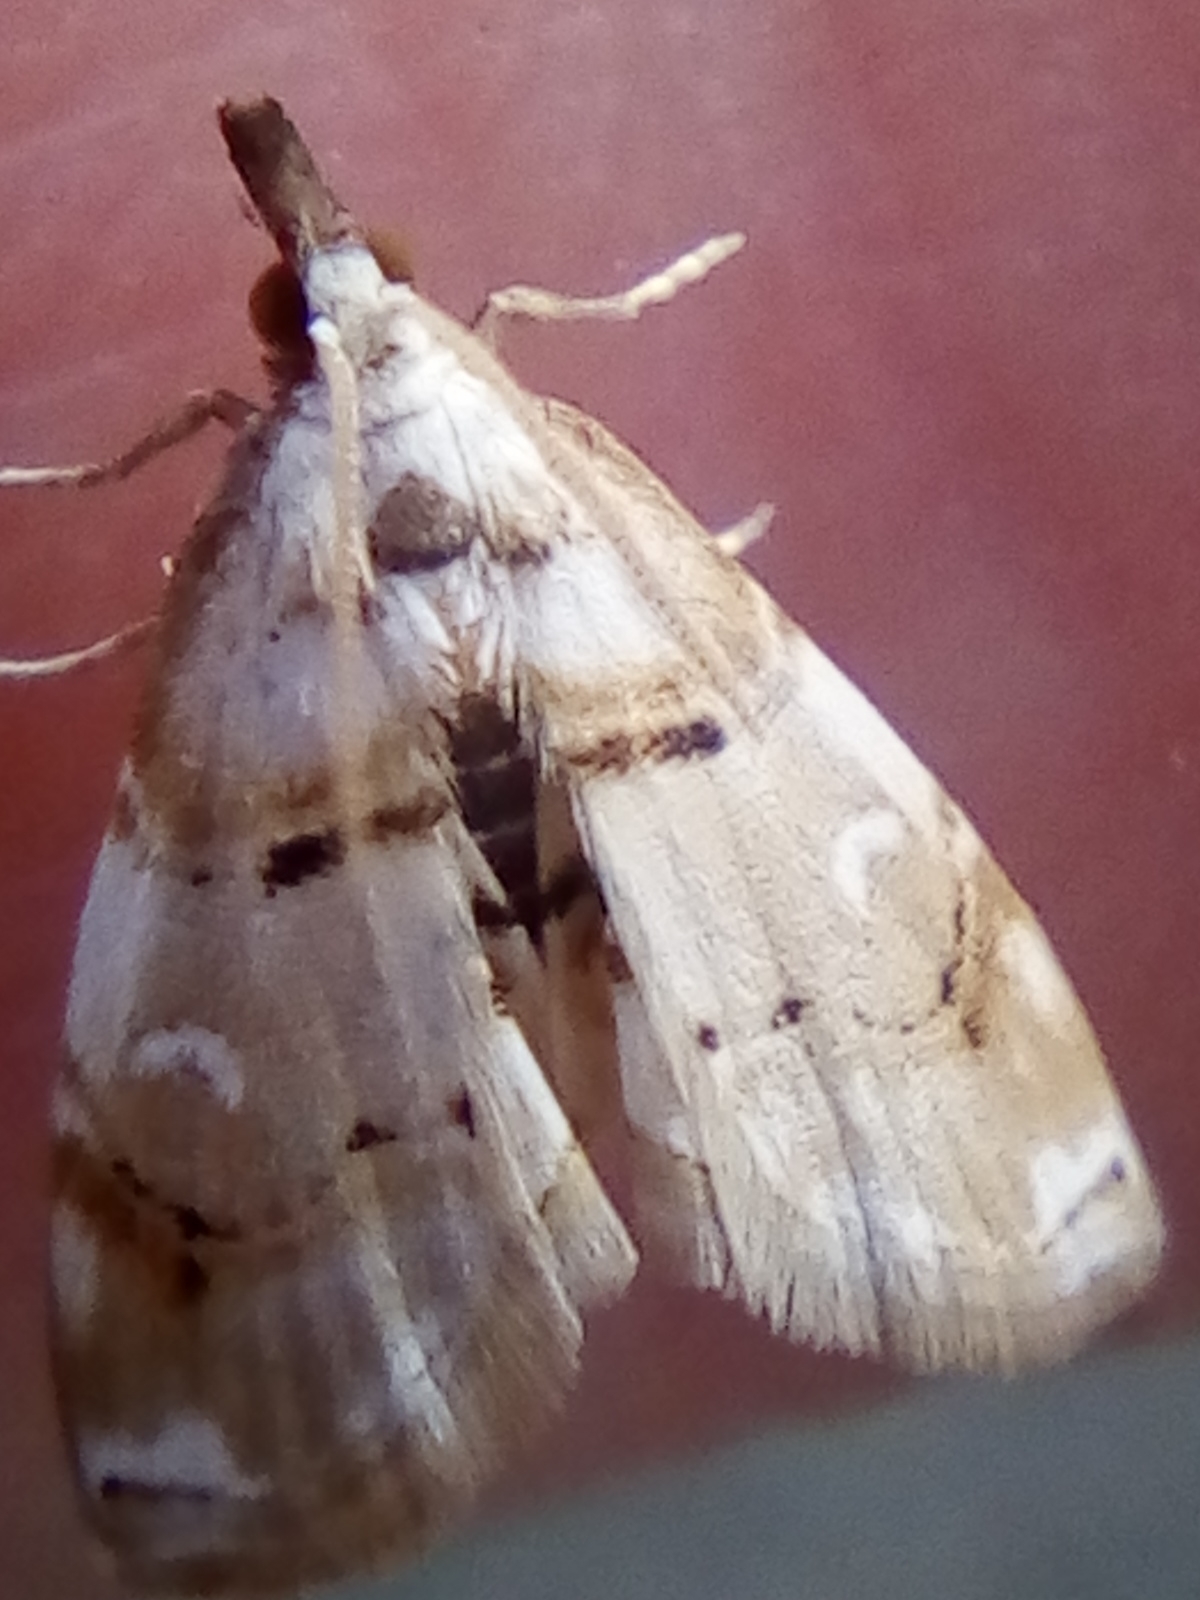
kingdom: Animalia
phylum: Arthropoda
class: Insecta
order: Lepidoptera
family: Crambidae
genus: Trichophysetis
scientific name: Trichophysetis
